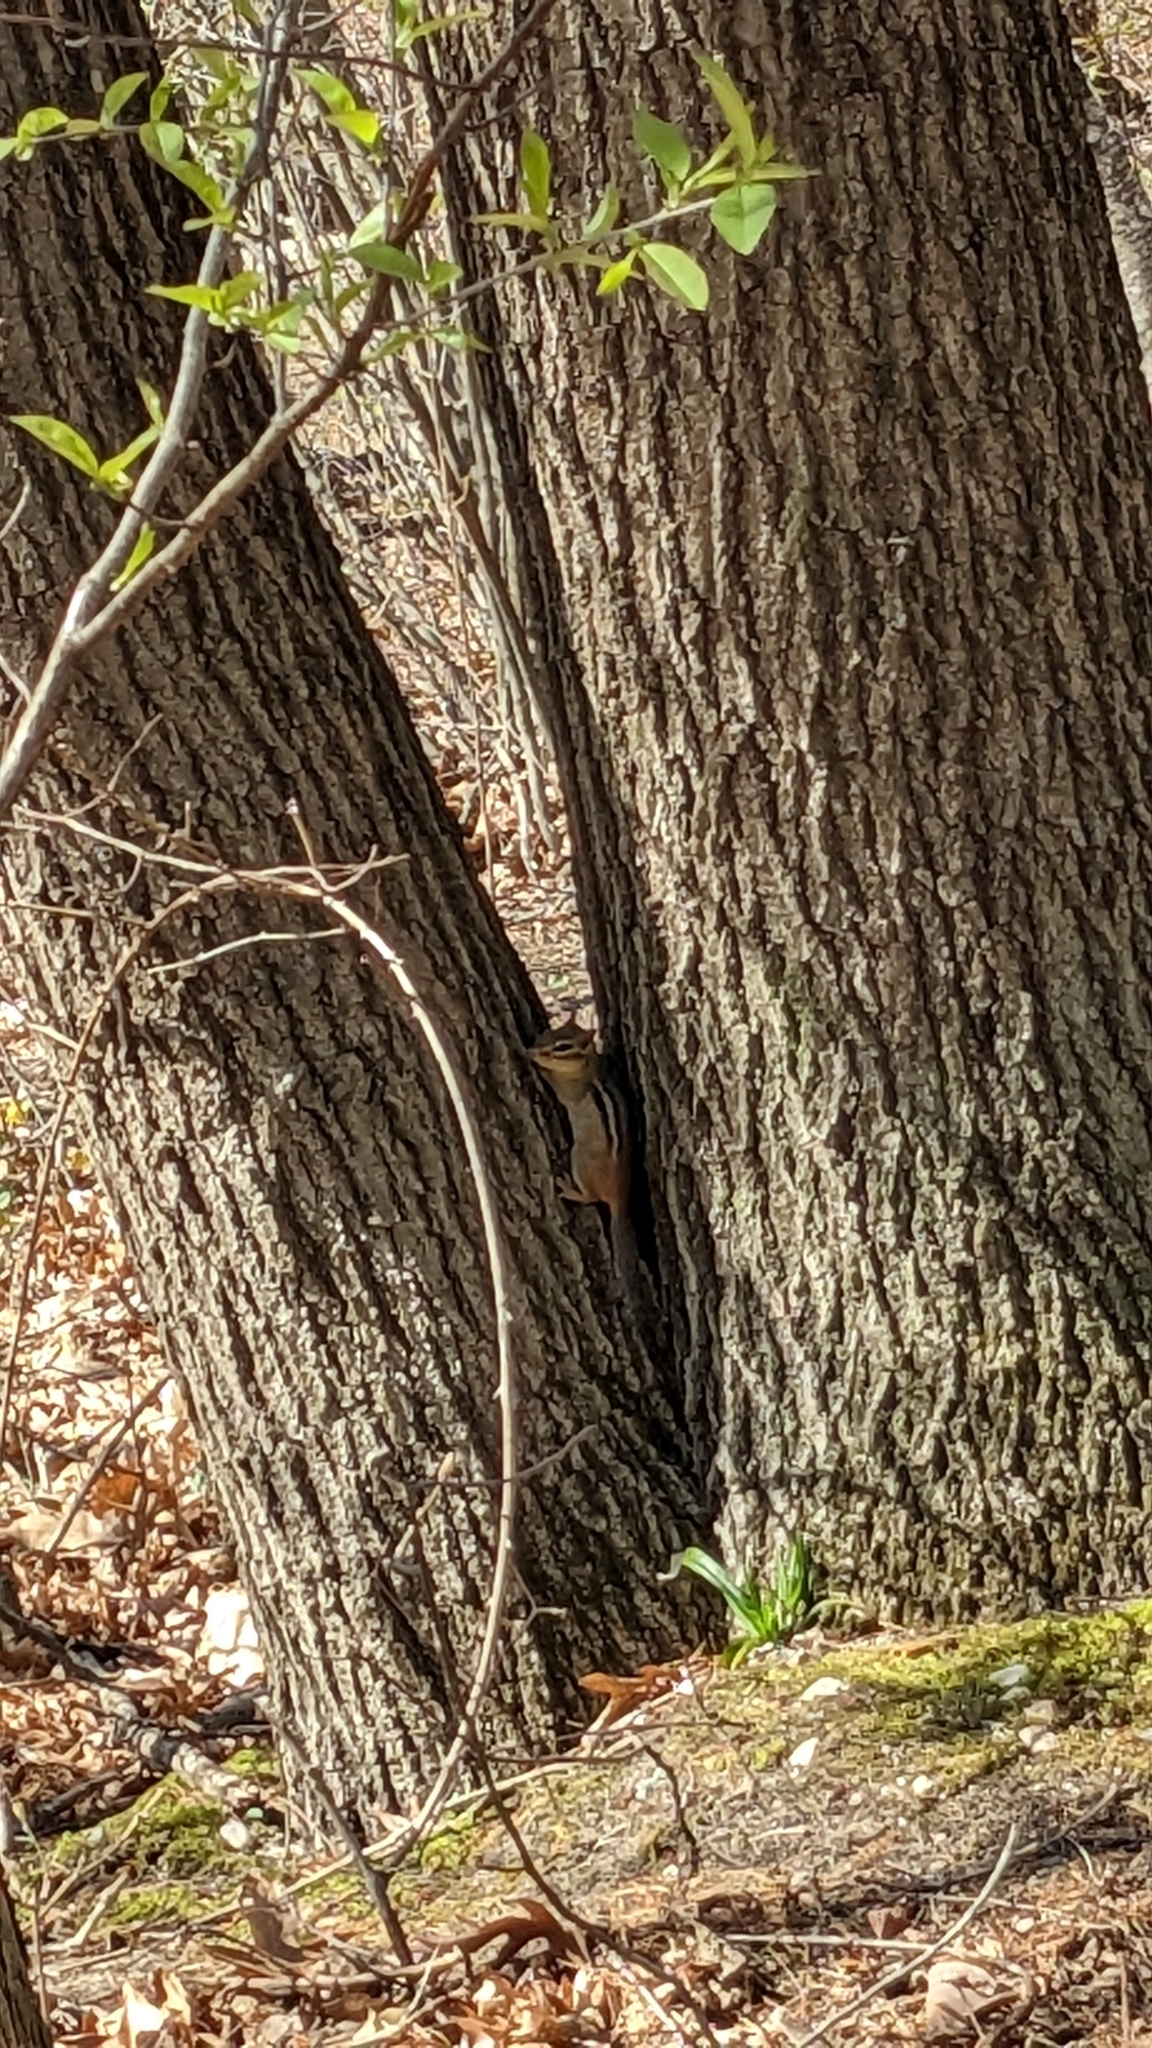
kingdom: Animalia
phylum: Chordata
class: Mammalia
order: Rodentia
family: Sciuridae
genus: Tamias
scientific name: Tamias striatus
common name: Eastern chipmunk
